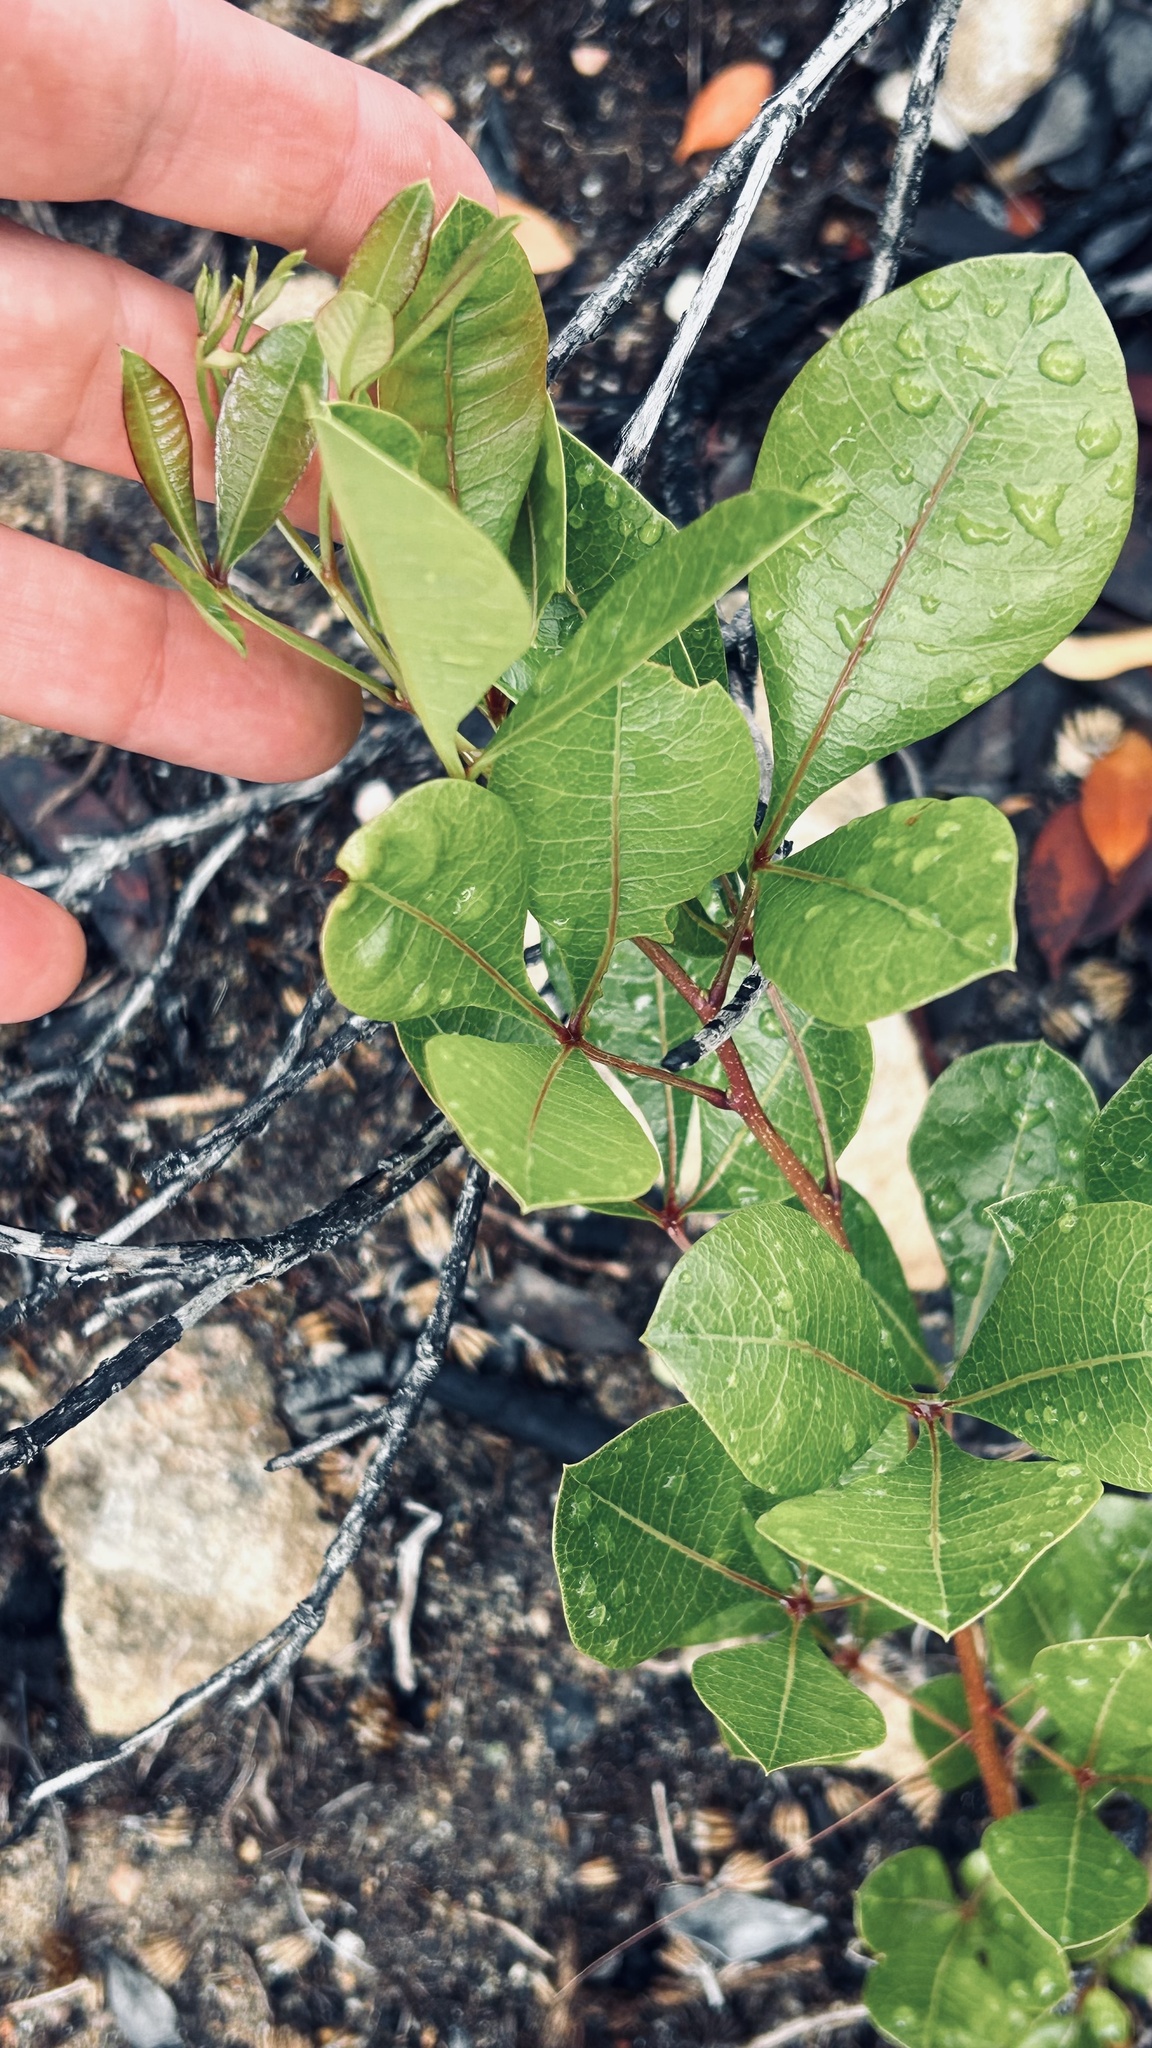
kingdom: Plantae
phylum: Tracheophyta
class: Magnoliopsida
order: Sapindales
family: Anacardiaceae
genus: Searsia
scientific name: Searsia laevigata
